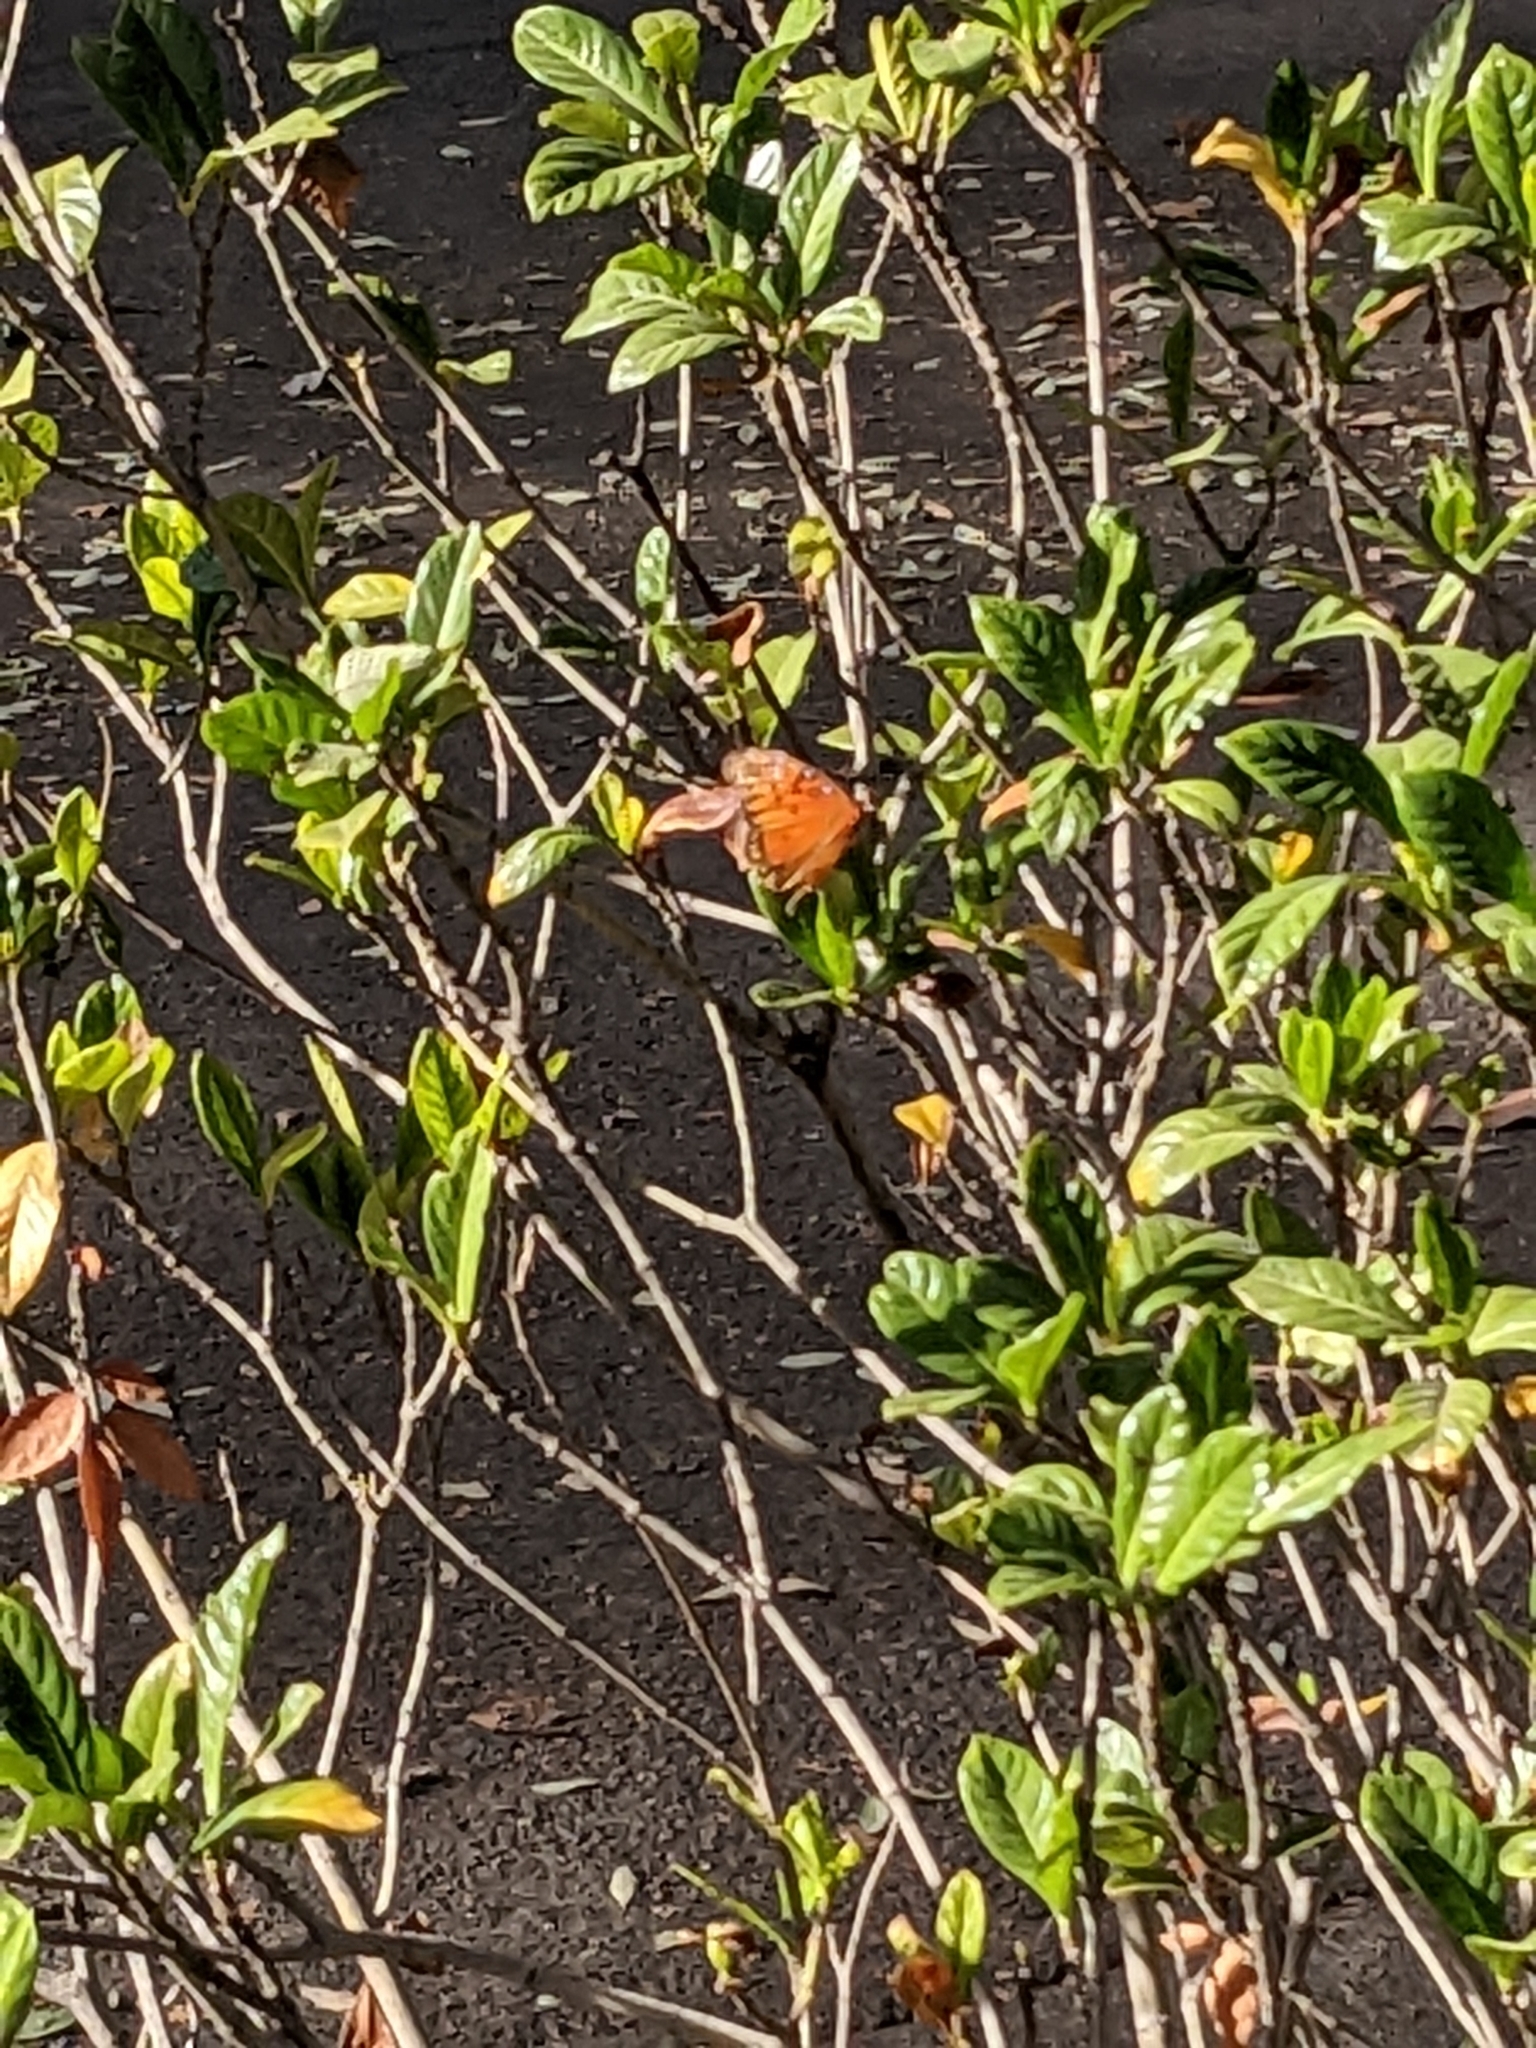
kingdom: Animalia
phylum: Arthropoda
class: Insecta
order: Lepidoptera
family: Nymphalidae
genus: Dione
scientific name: Dione vanillae
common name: Gulf fritillary
